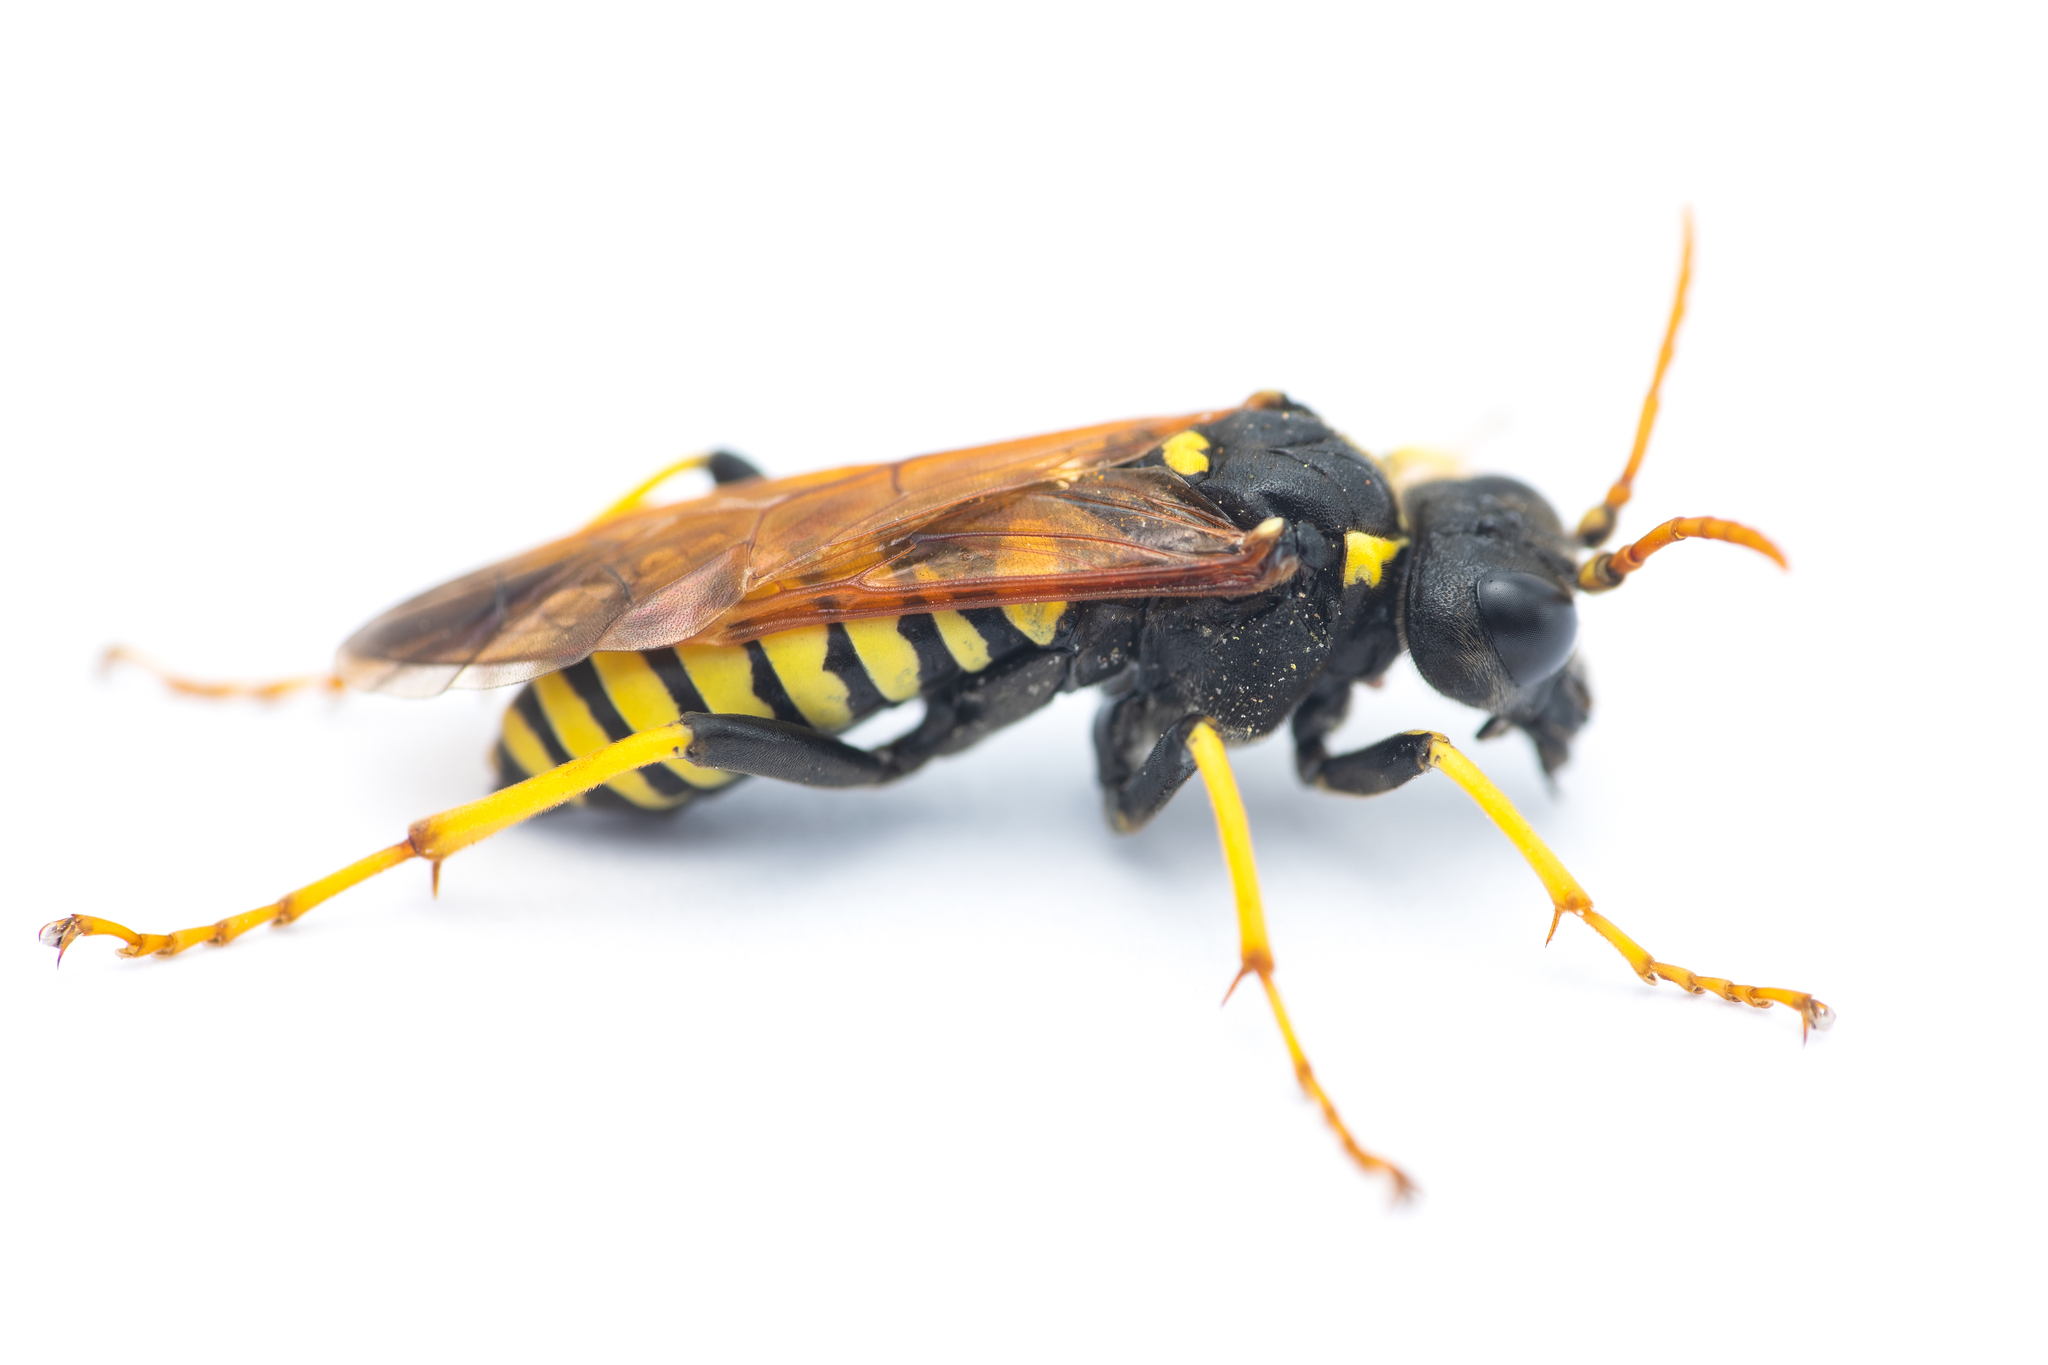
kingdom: Animalia
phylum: Arthropoda
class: Insecta
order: Hymenoptera
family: Tenthredinidae
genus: Tenthredo
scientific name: Tenthredo meridiana
